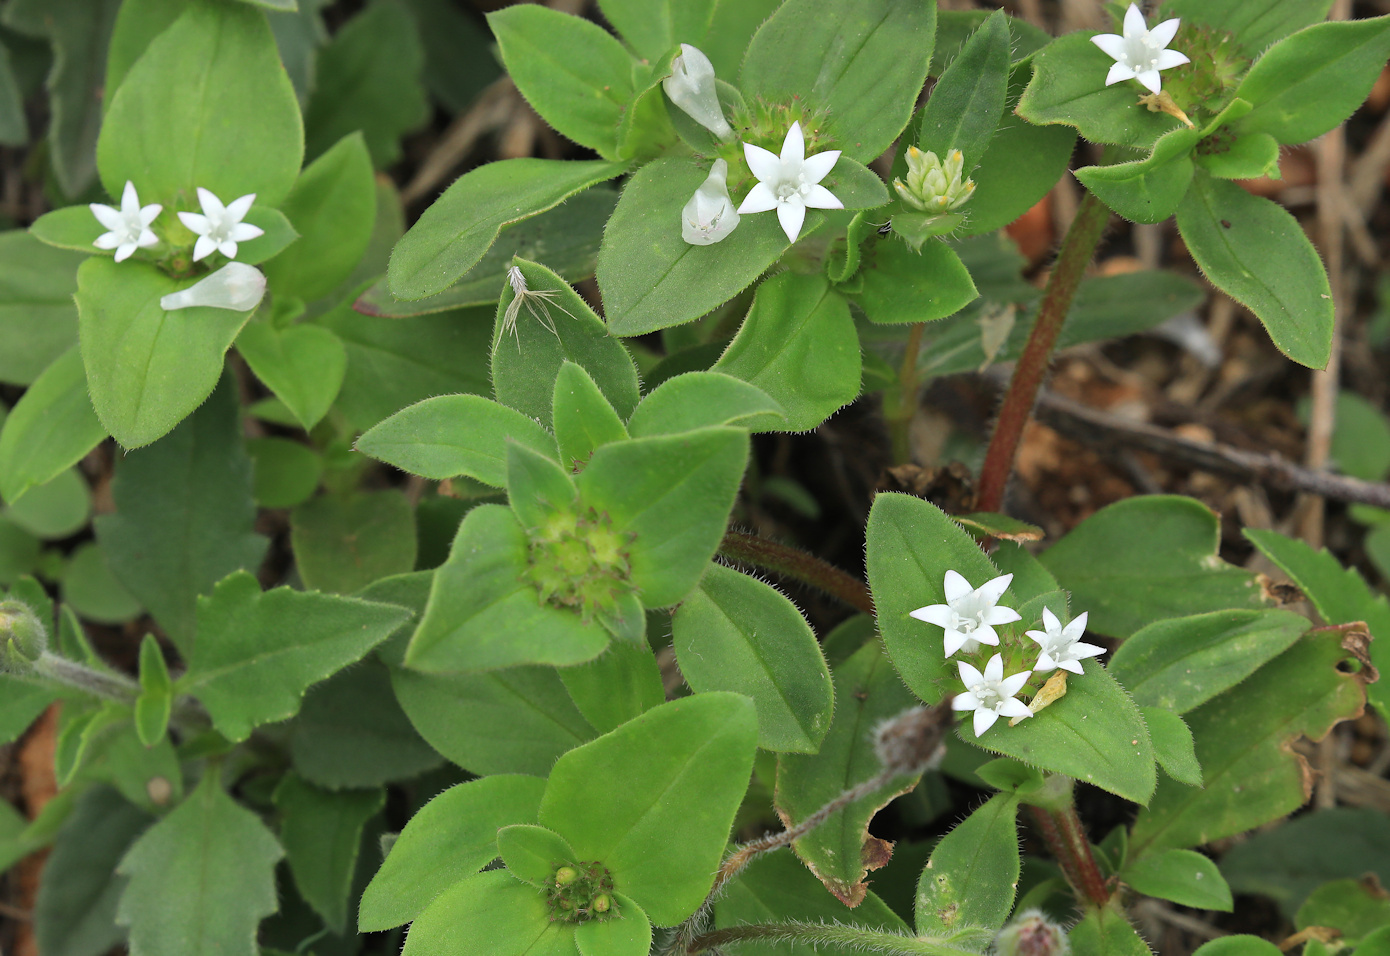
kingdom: Plantae
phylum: Tracheophyta
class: Magnoliopsida
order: Gentianales
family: Rubiaceae
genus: Richardia
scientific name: Richardia brasiliensis
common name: Tropical mexican clover
